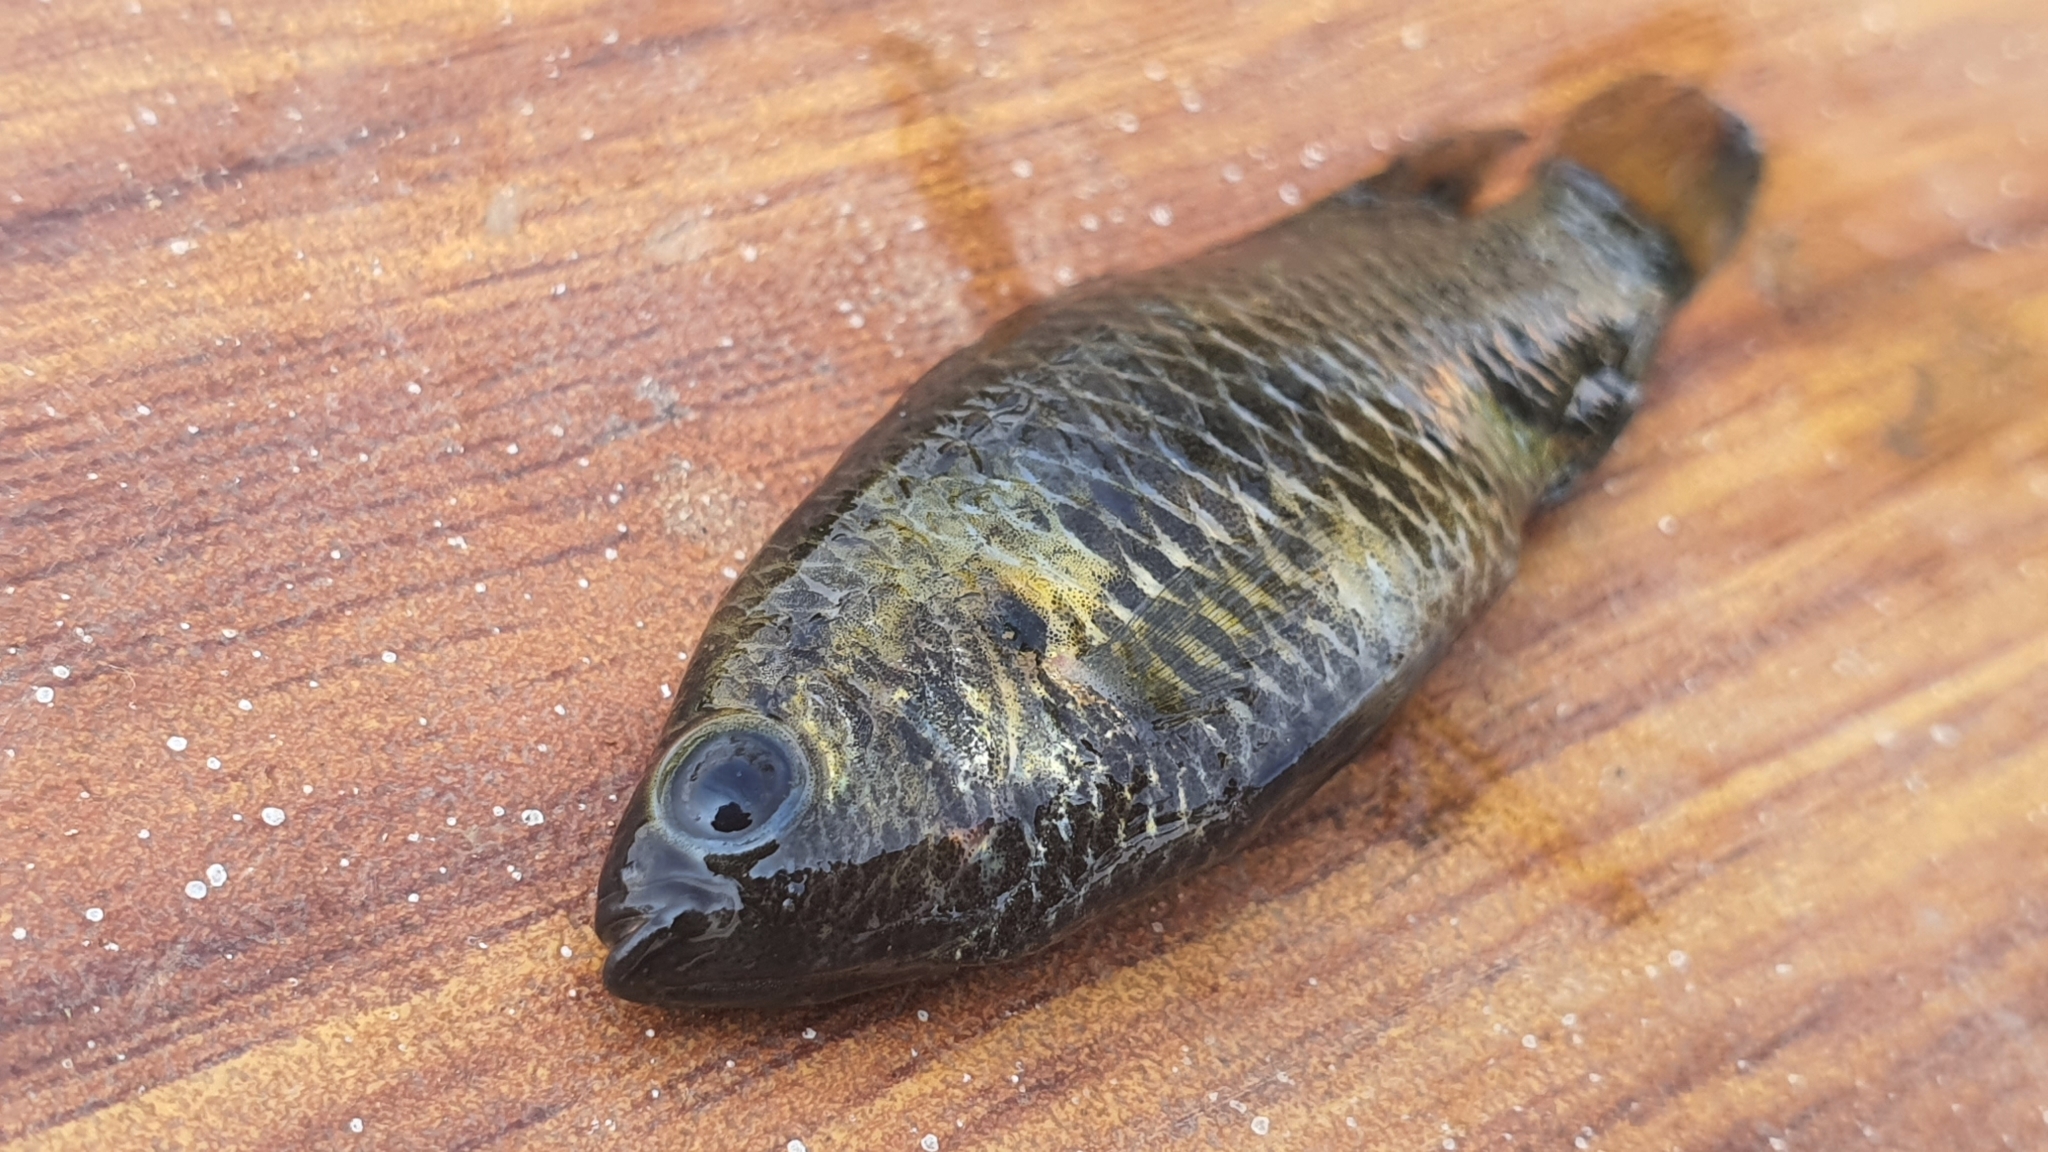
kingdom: Animalia
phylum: Chordata
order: Perciformes
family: Badidae
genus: Badis
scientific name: Badis badis
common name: Badis
